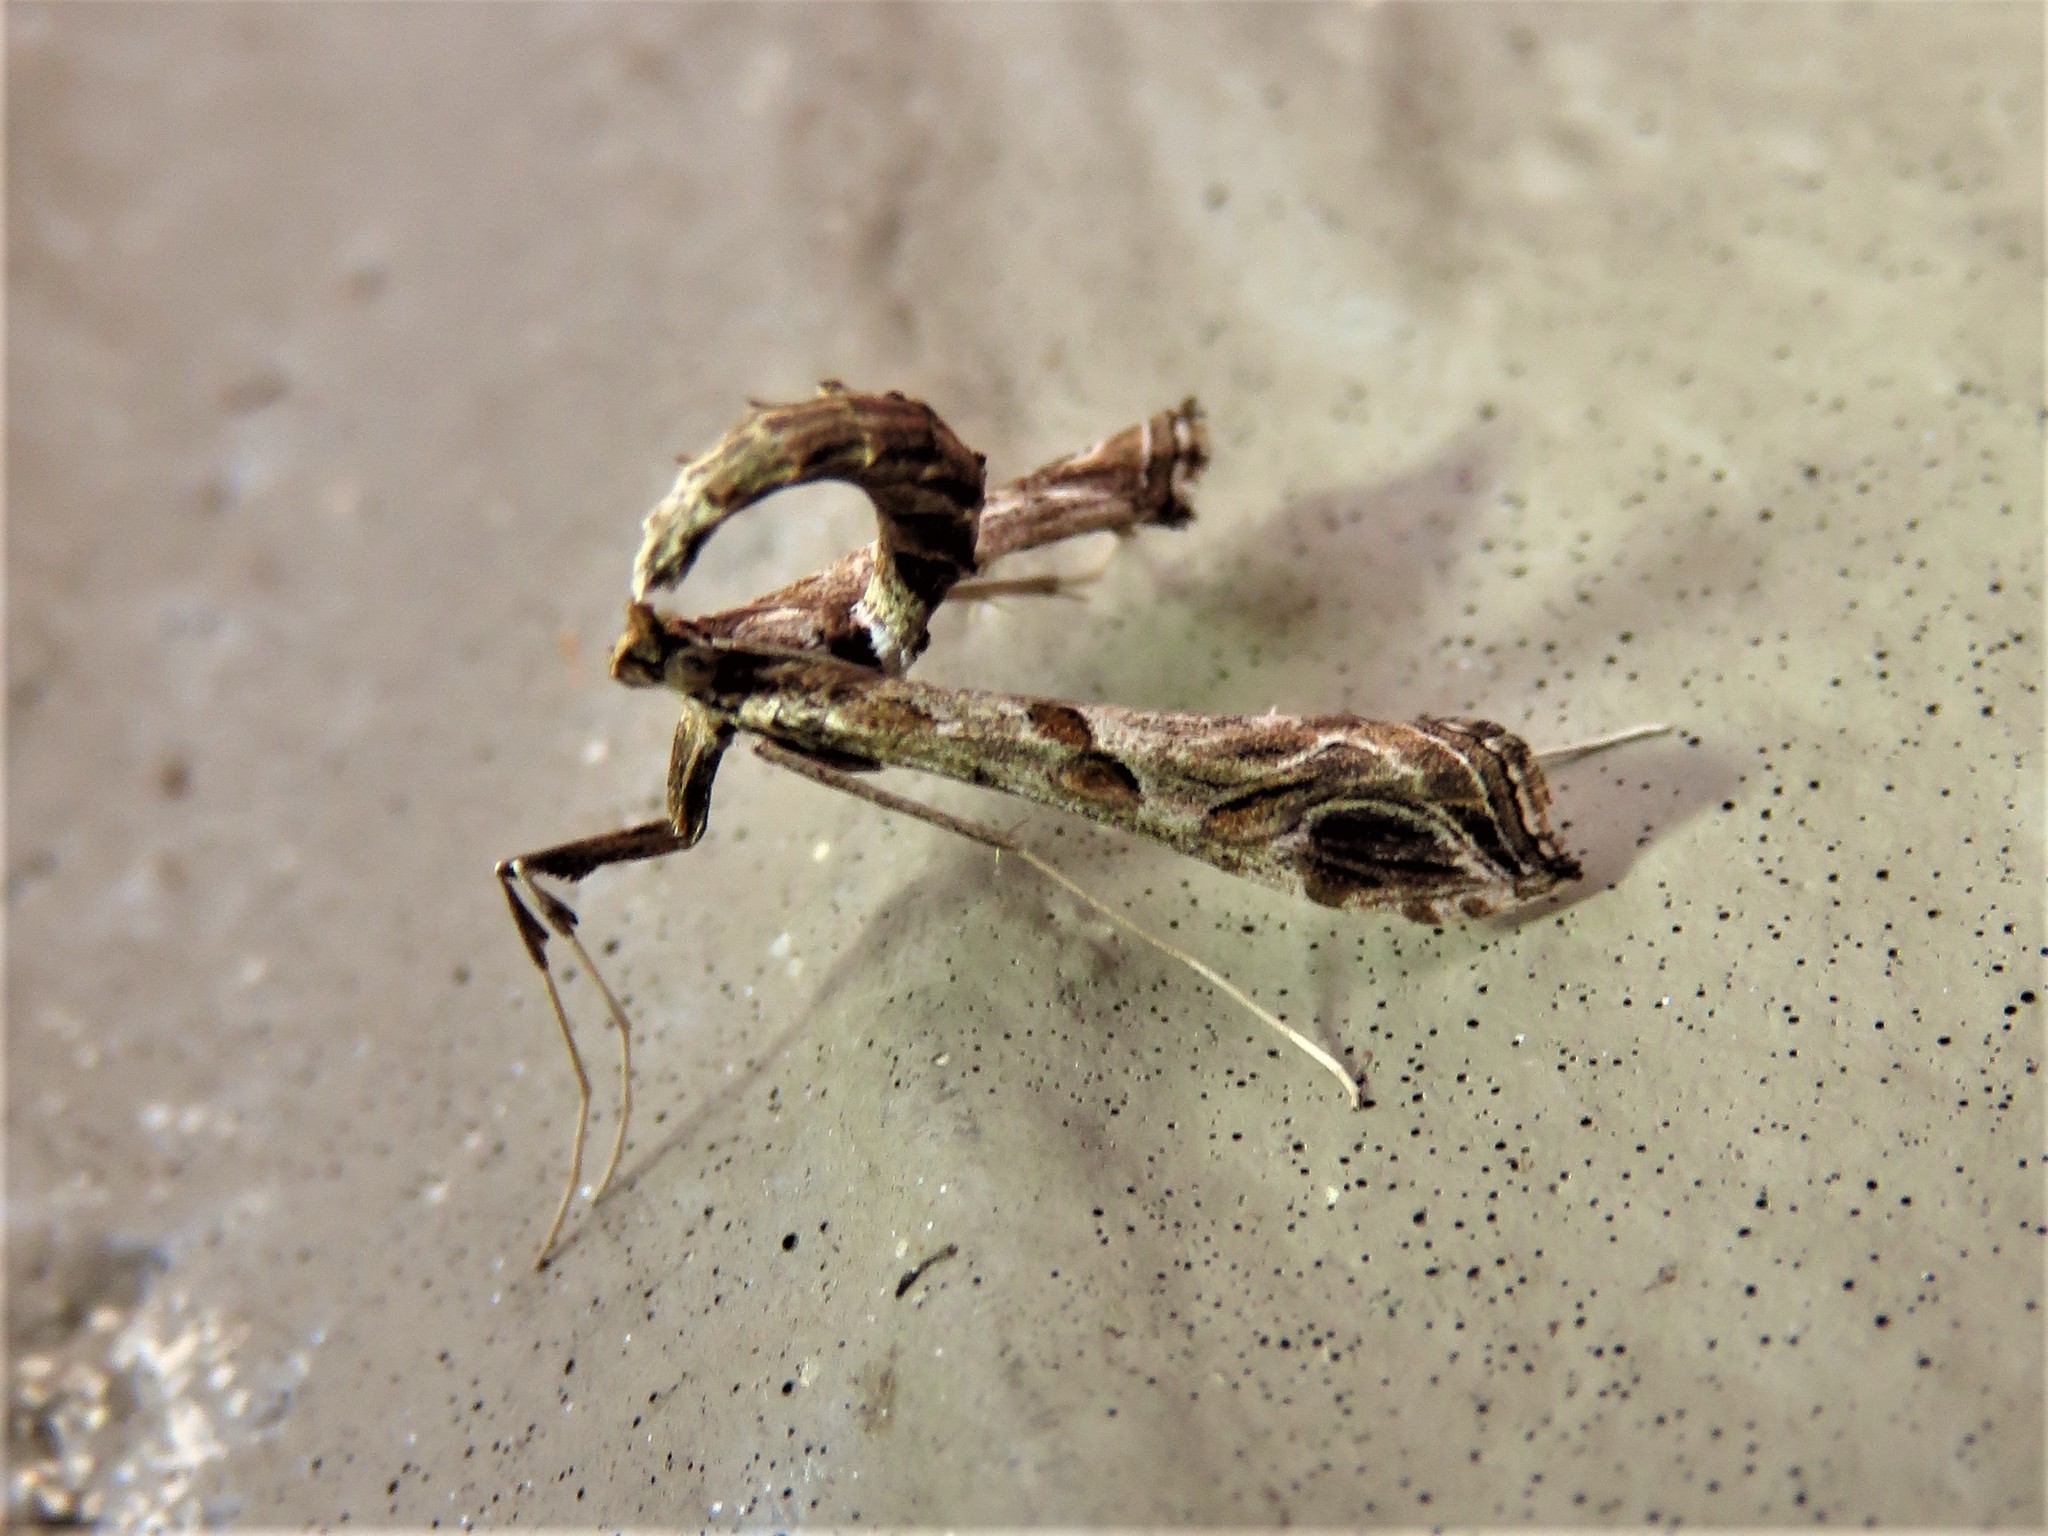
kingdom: Animalia
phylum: Arthropoda
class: Insecta
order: Lepidoptera
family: Crambidae
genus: Lineodes
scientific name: Lineodes interrupta
